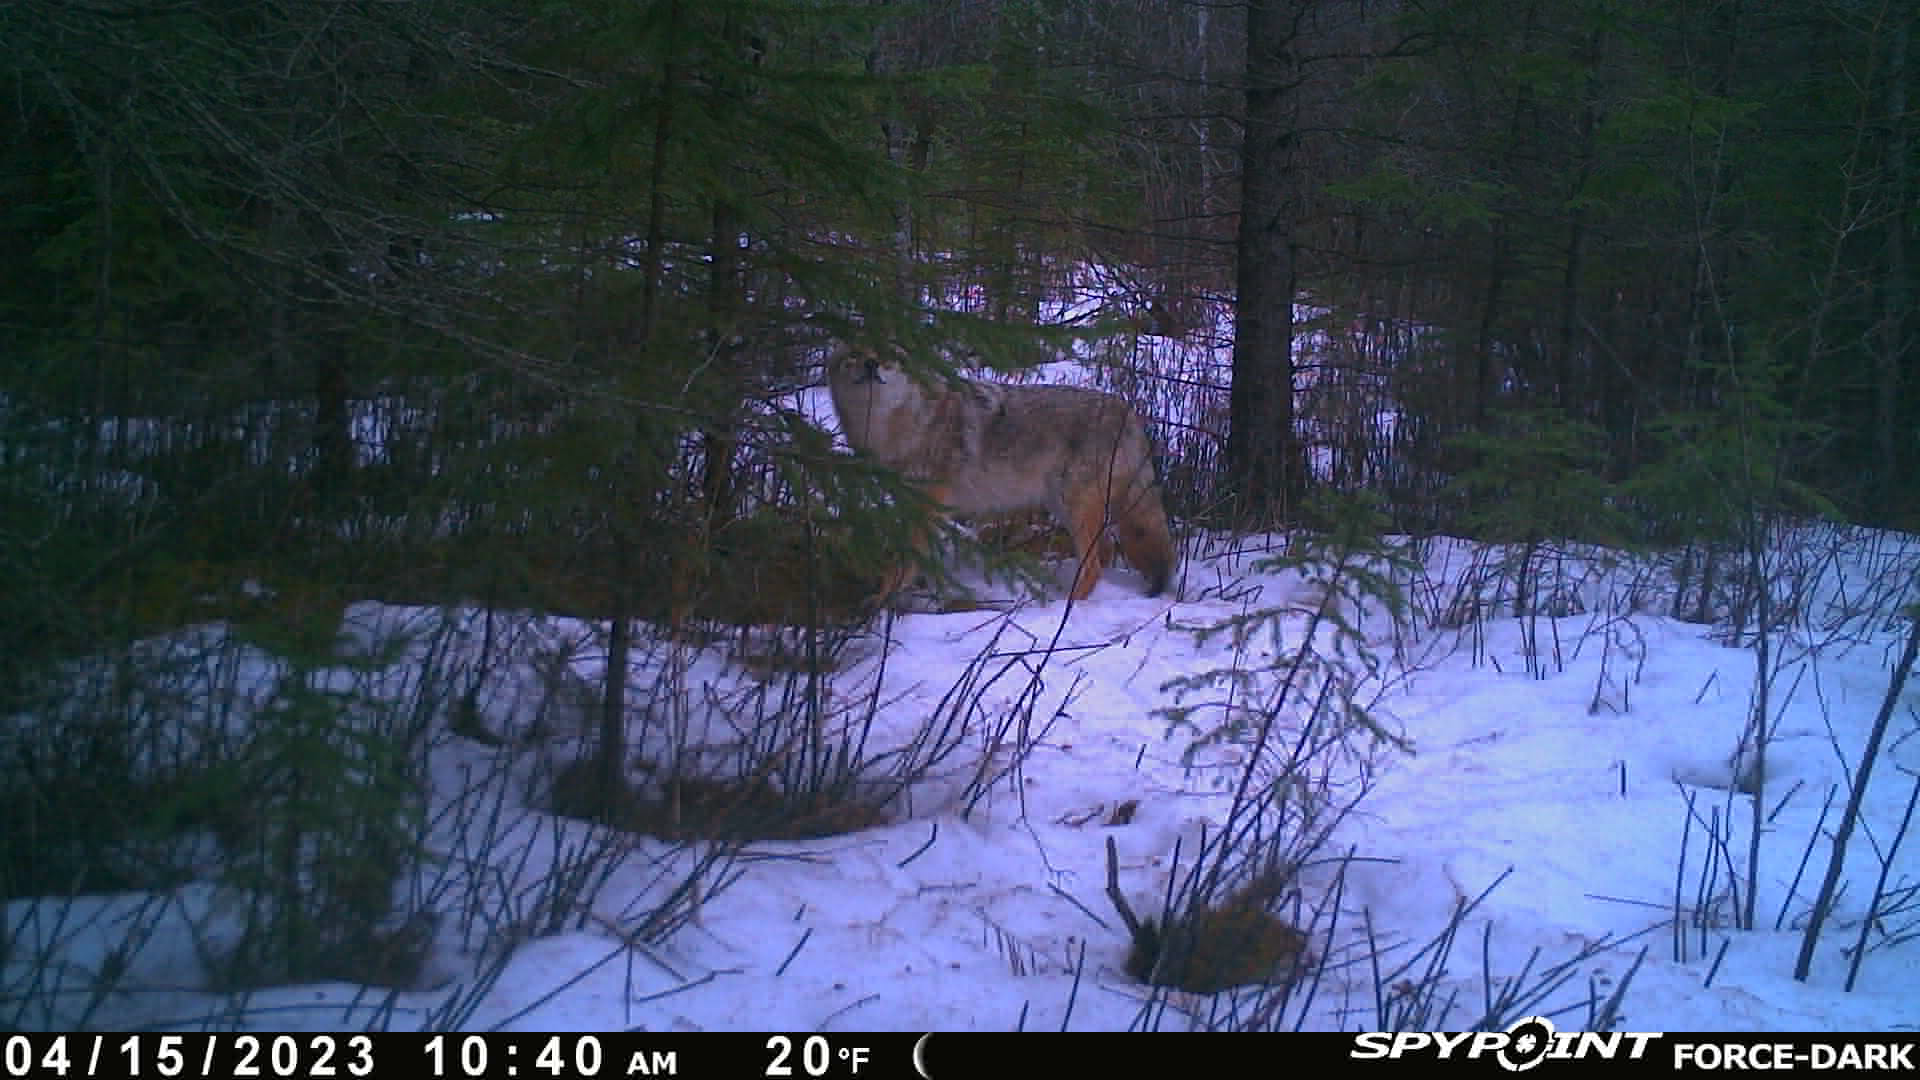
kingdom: Animalia
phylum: Chordata
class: Mammalia
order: Carnivora
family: Canidae
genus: Canis
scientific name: Canis latrans
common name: Coyote
